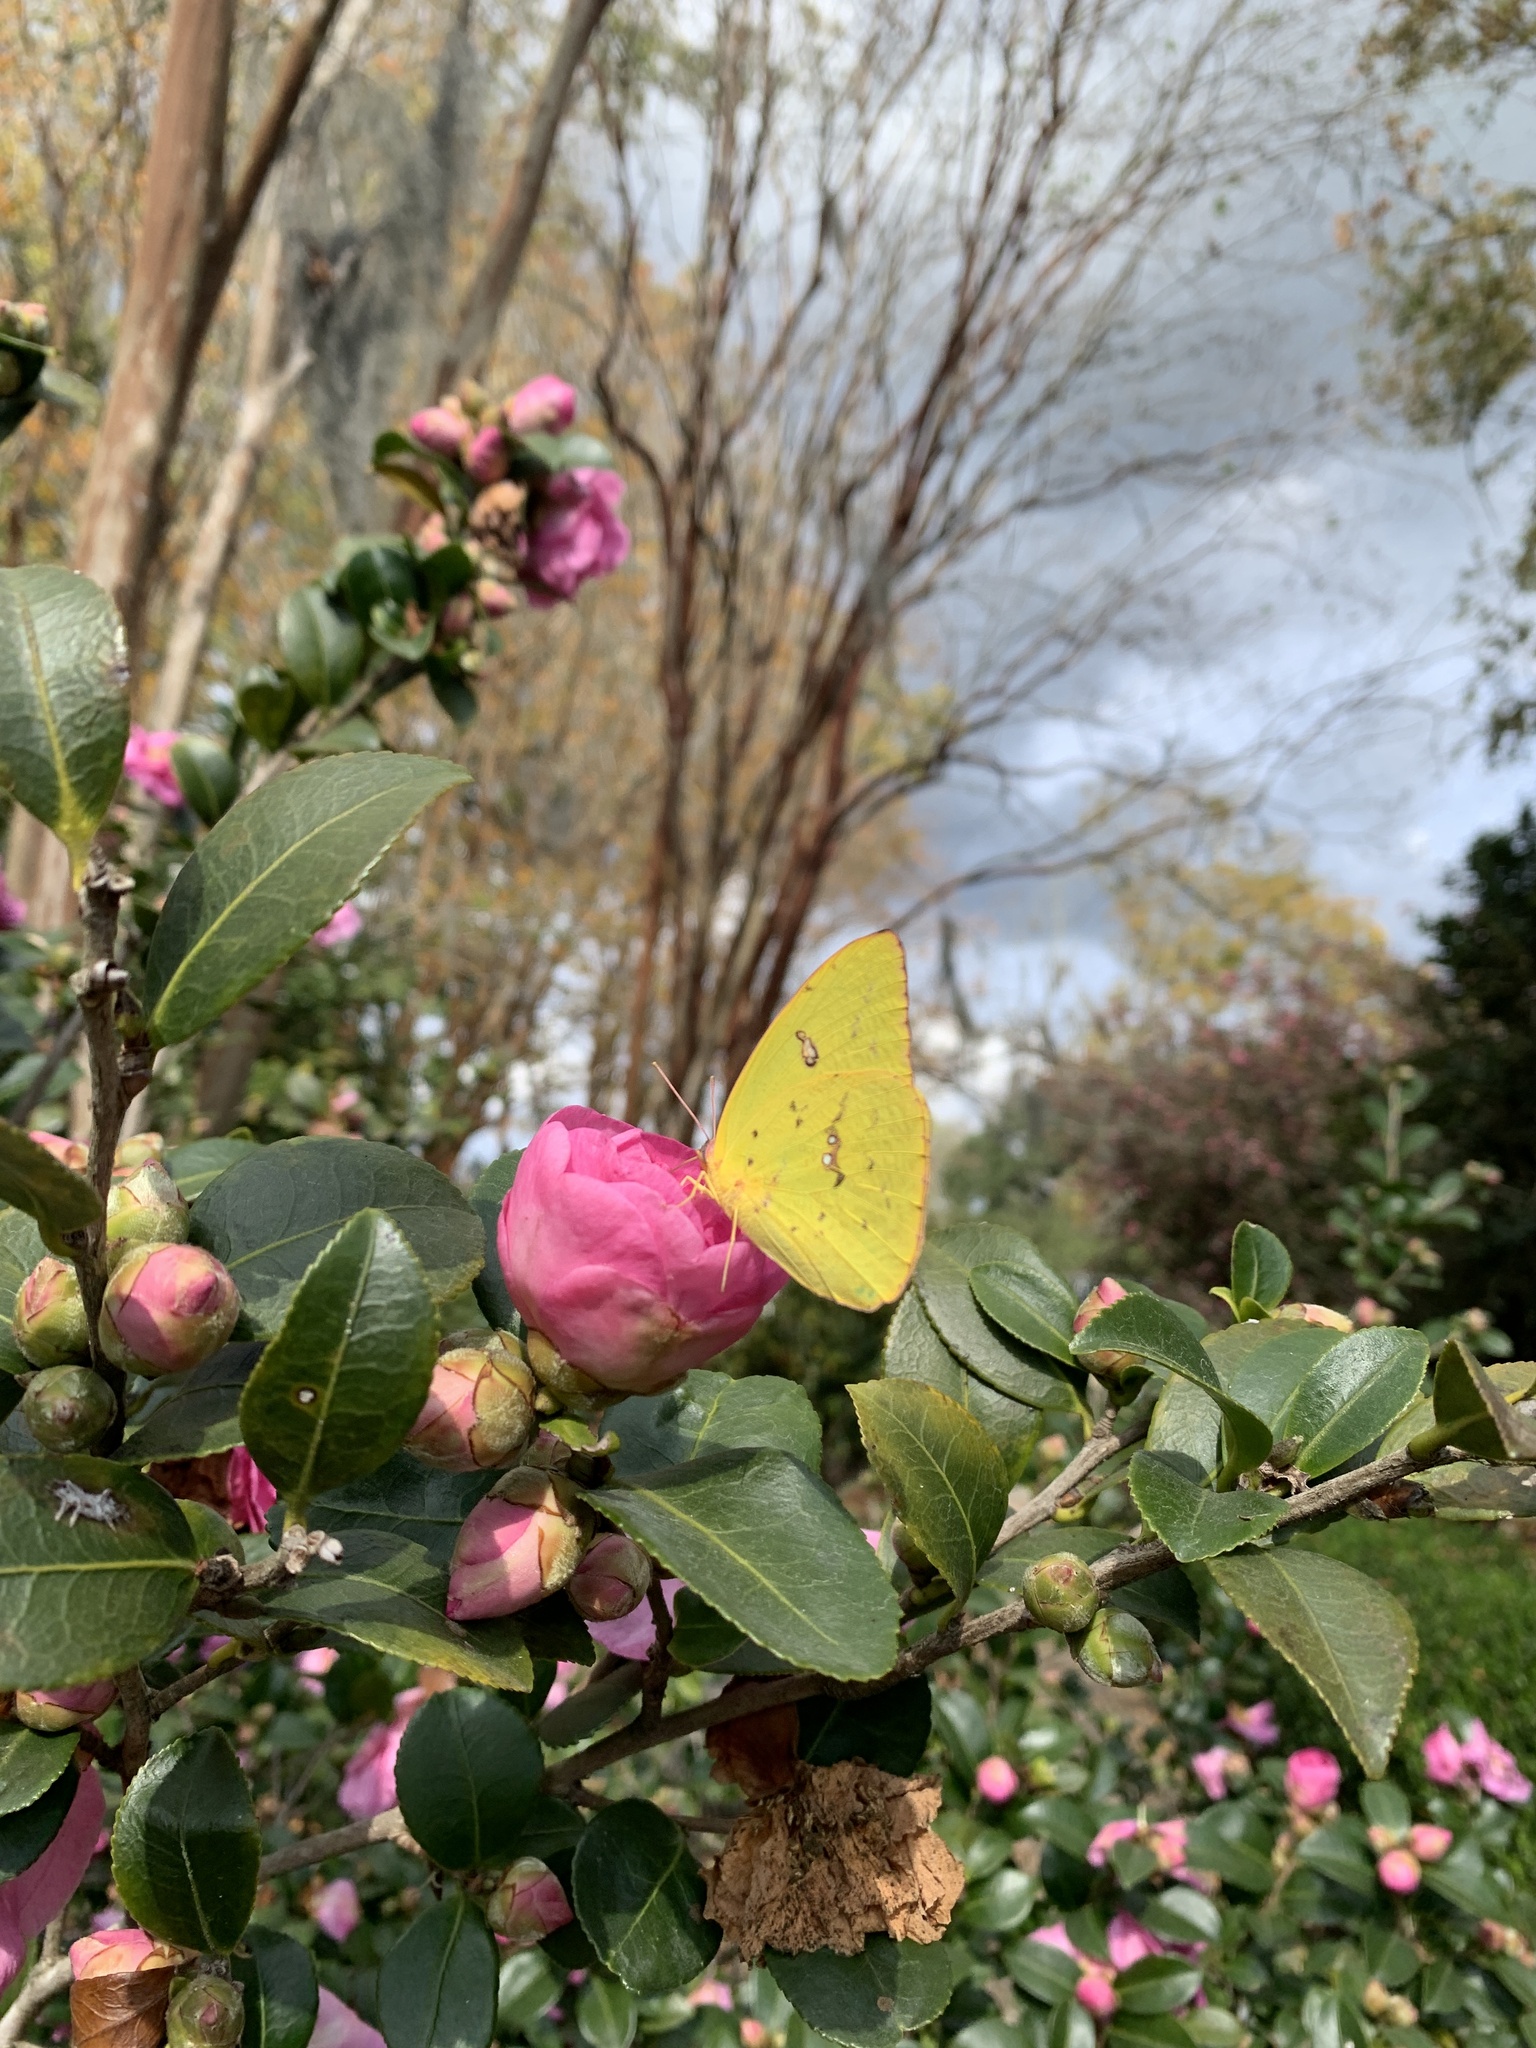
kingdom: Animalia
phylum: Arthropoda
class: Insecta
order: Lepidoptera
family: Pieridae
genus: Phoebis
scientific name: Phoebis sennae
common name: Cloudless sulphur
